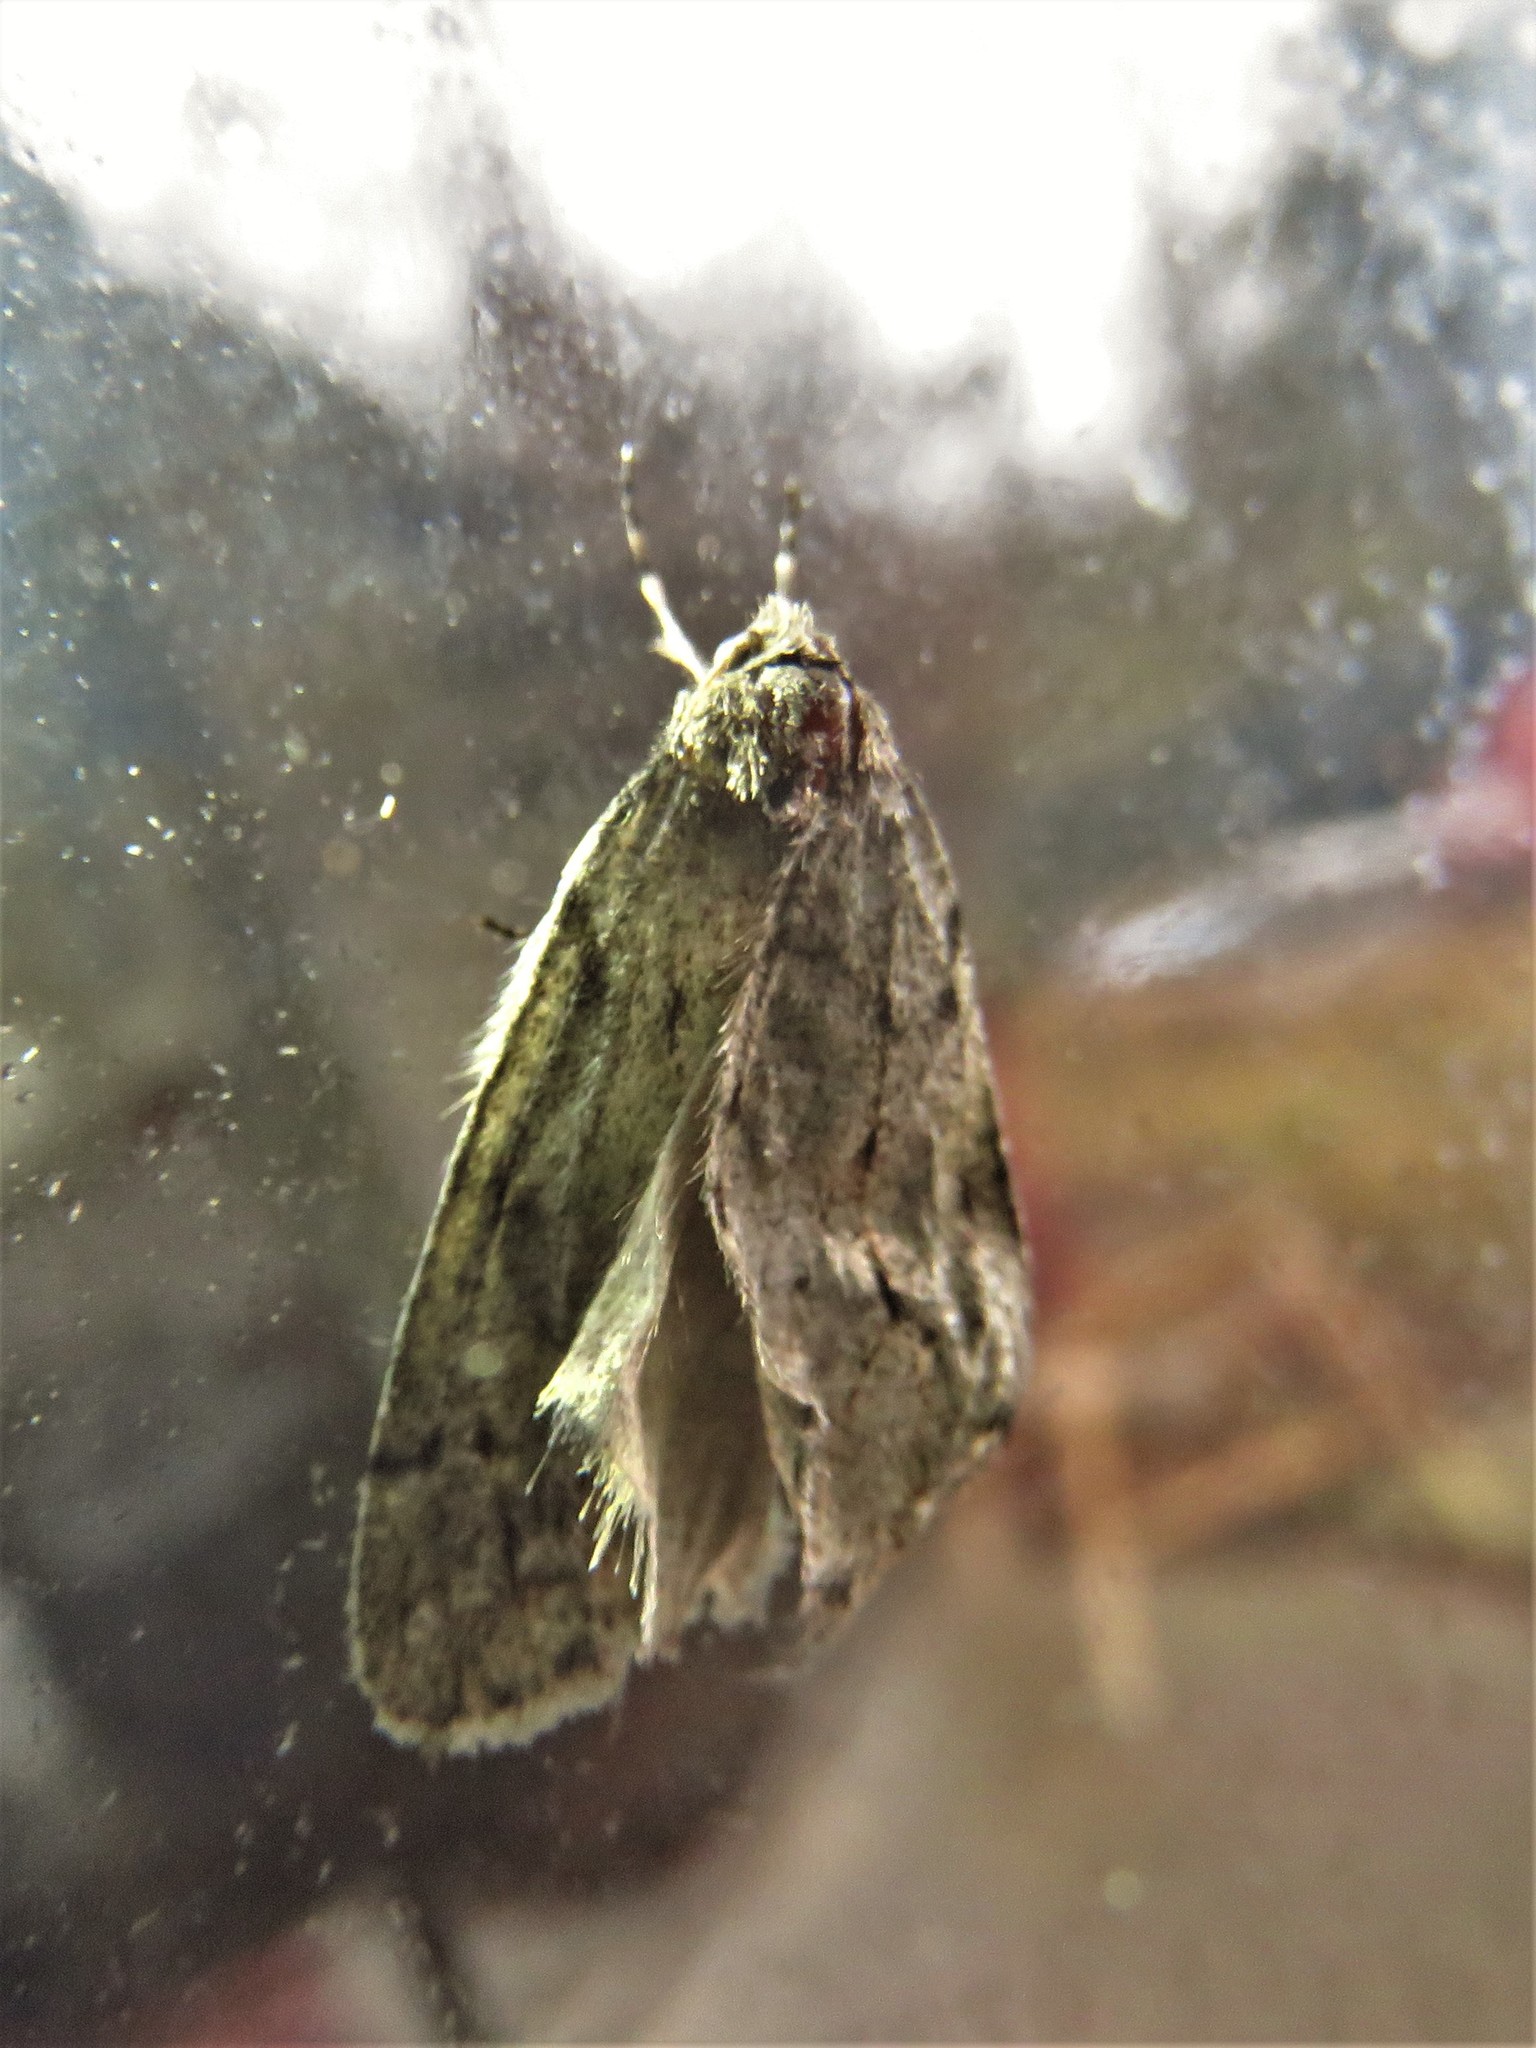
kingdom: Animalia
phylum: Arthropoda
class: Insecta
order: Lepidoptera
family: Geometridae
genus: Paleacrita
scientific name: Paleacrita vernata
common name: Spring cankerworm
